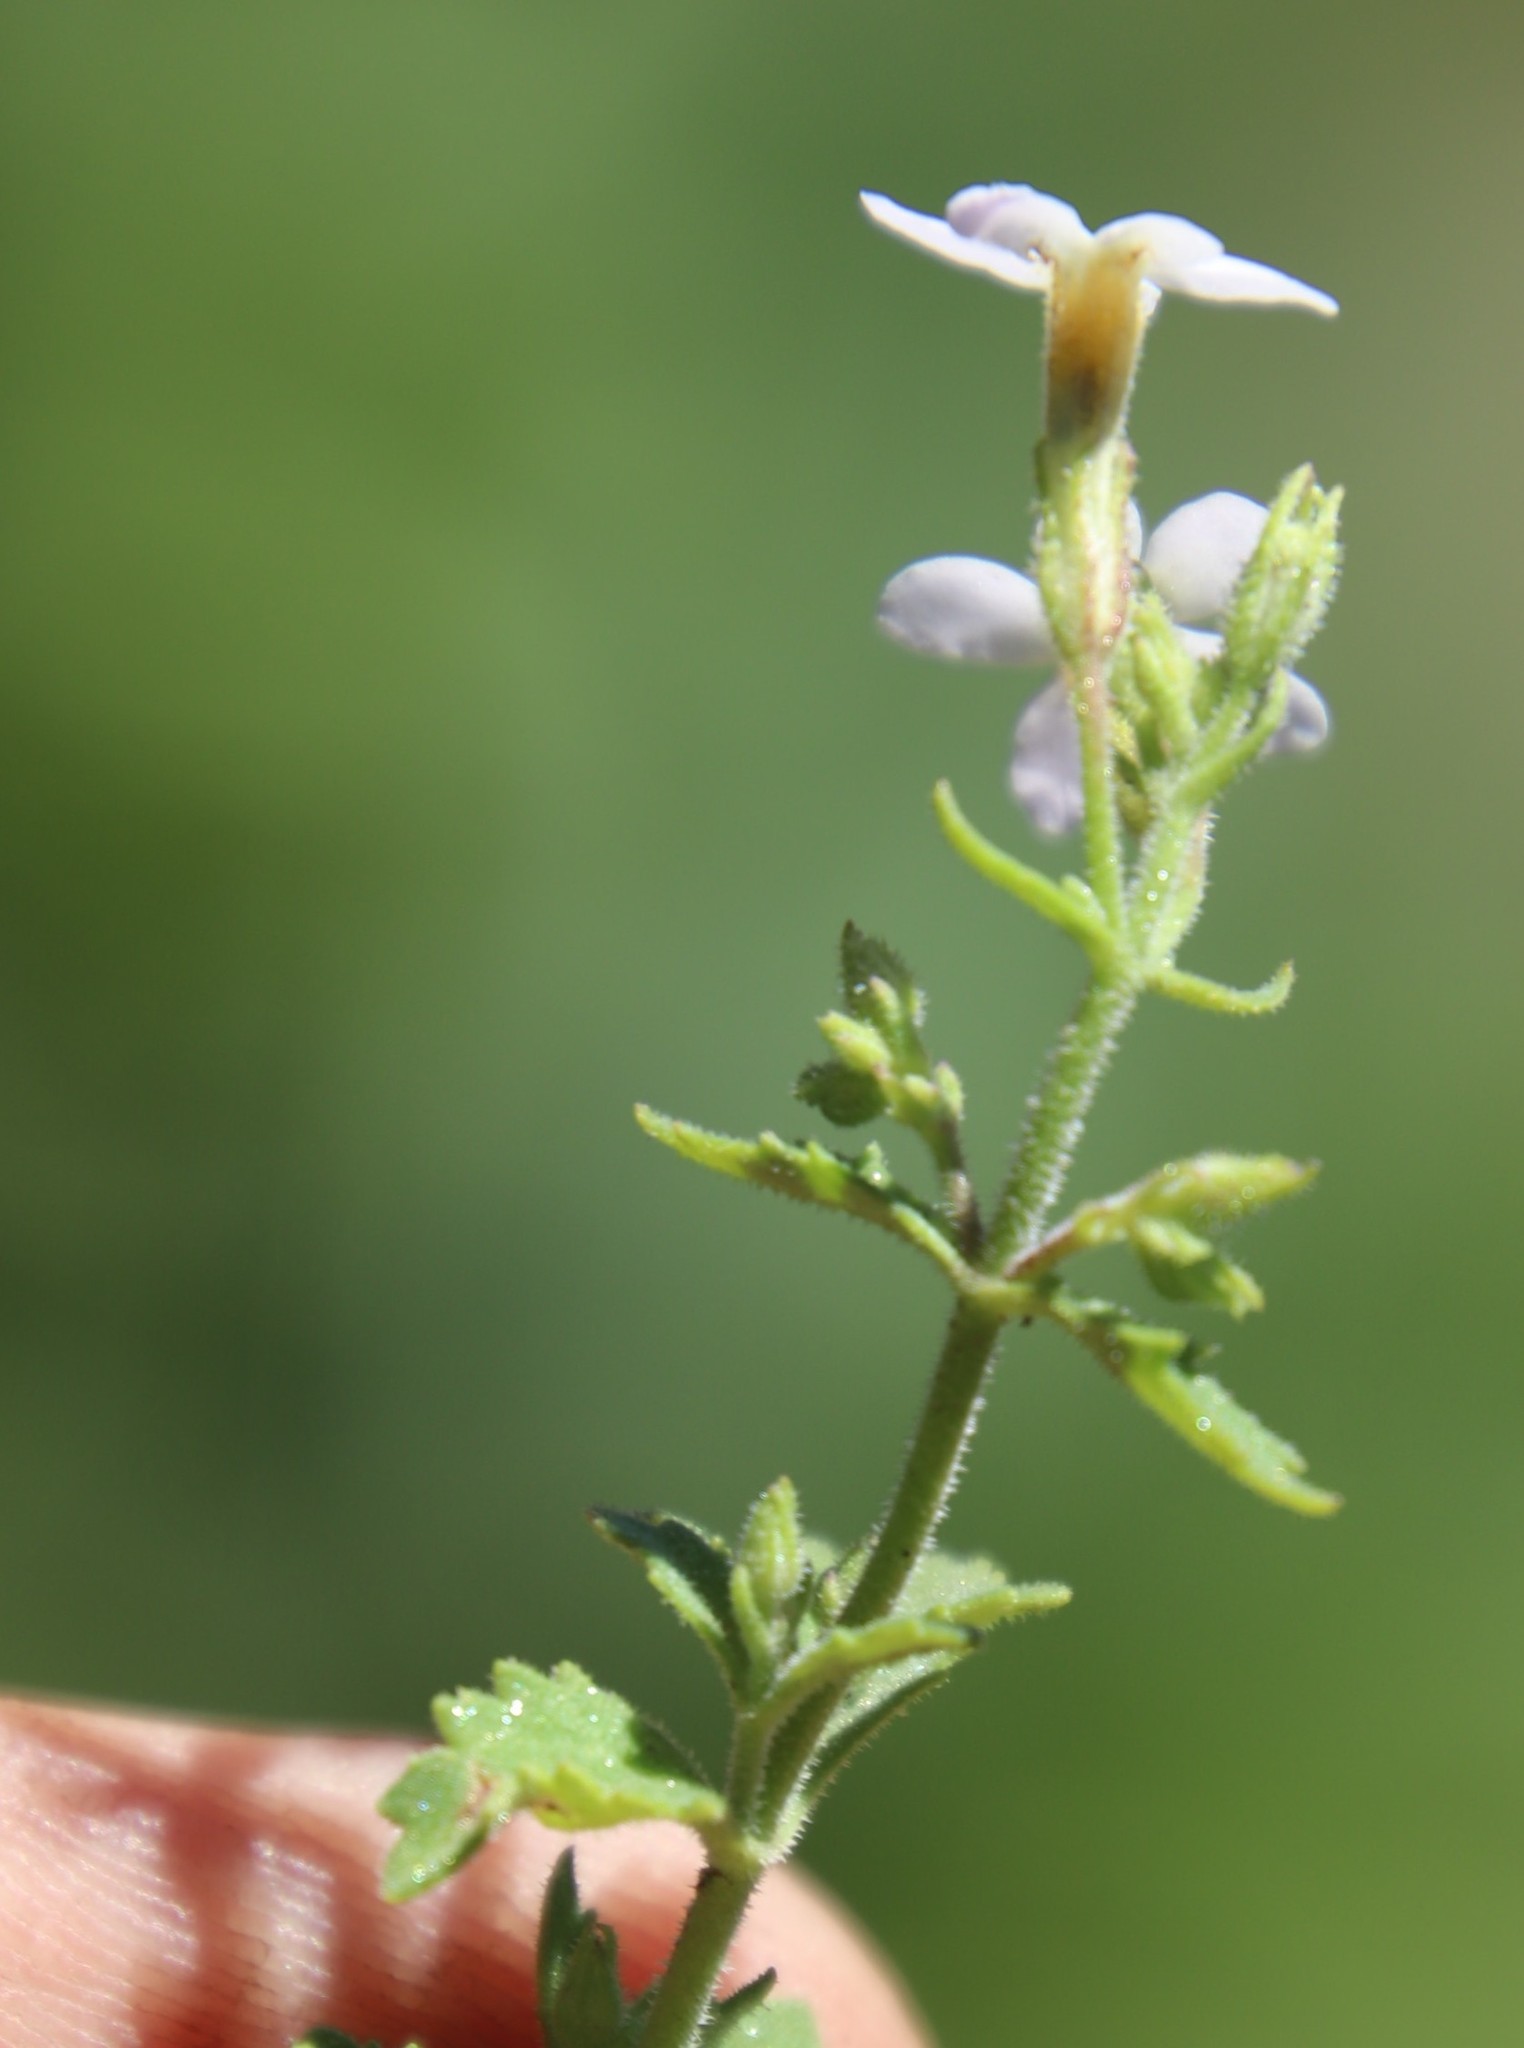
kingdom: Plantae
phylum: Tracheophyta
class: Magnoliopsida
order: Lamiales
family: Scrophulariaceae
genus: Chaenostoma
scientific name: Chaenostoma floribundum
